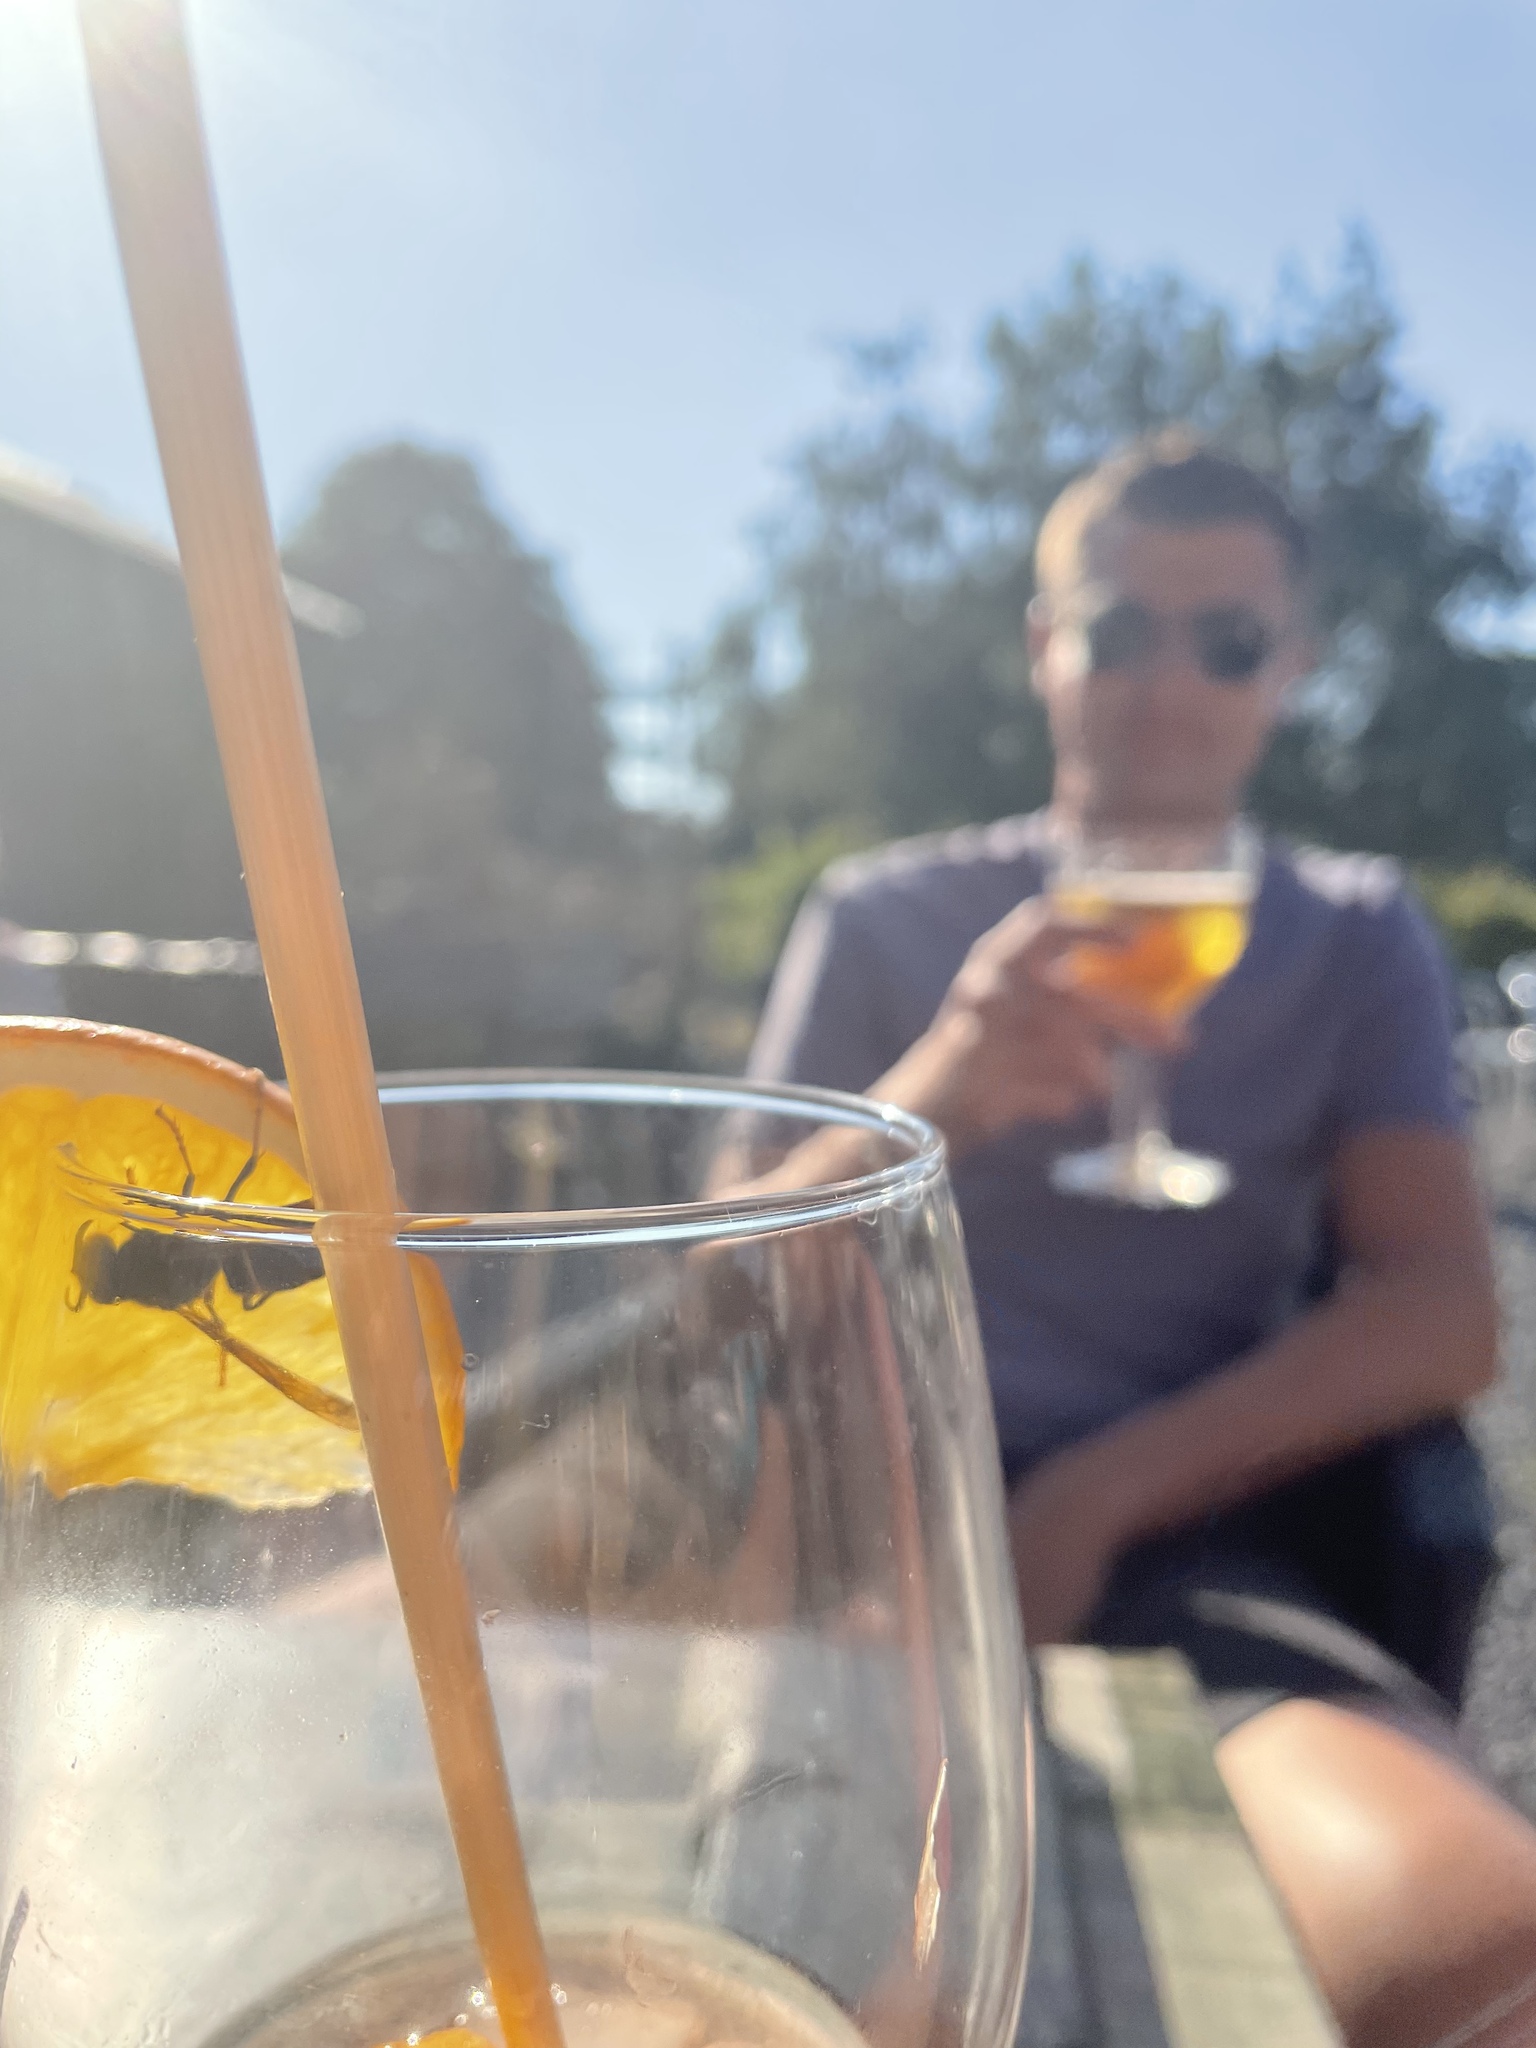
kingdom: Animalia
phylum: Arthropoda
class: Insecta
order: Hymenoptera
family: Vespidae
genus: Vespa
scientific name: Vespa velutina
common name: Asian hornet
